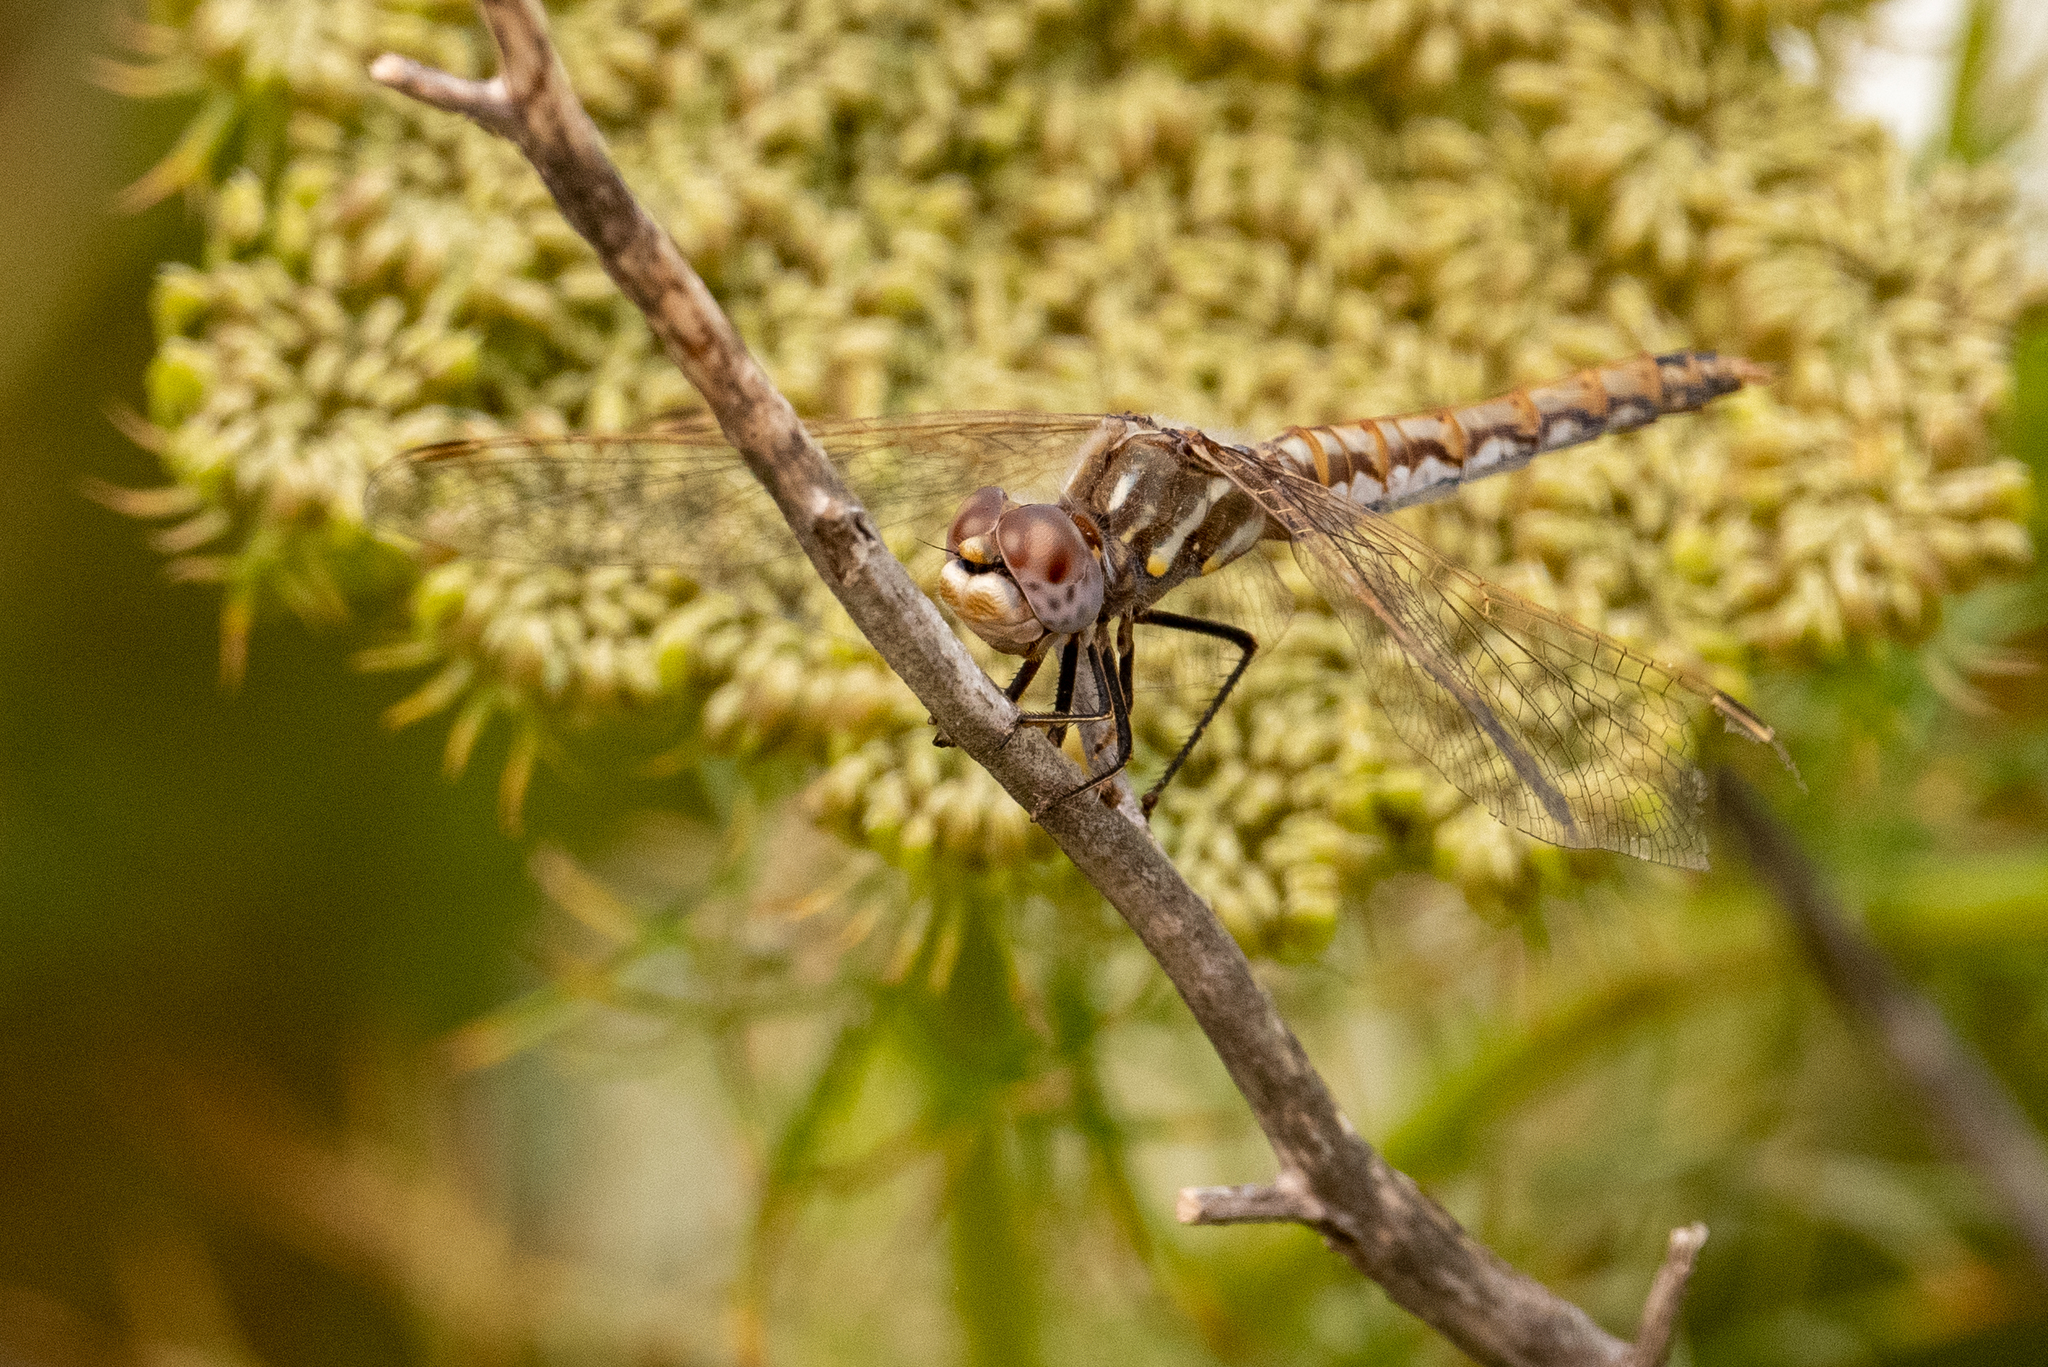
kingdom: Animalia
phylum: Arthropoda
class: Insecta
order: Odonata
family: Libellulidae
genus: Sympetrum
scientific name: Sympetrum corruptum
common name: Variegated meadowhawk
